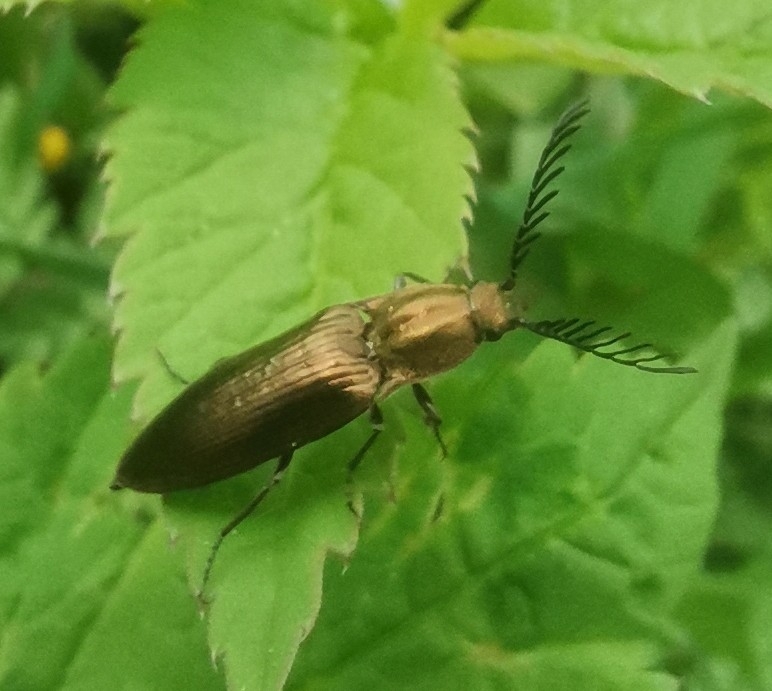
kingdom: Animalia
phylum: Arthropoda
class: Insecta
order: Coleoptera
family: Elateridae
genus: Ctenicera
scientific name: Ctenicera pectinicornis
